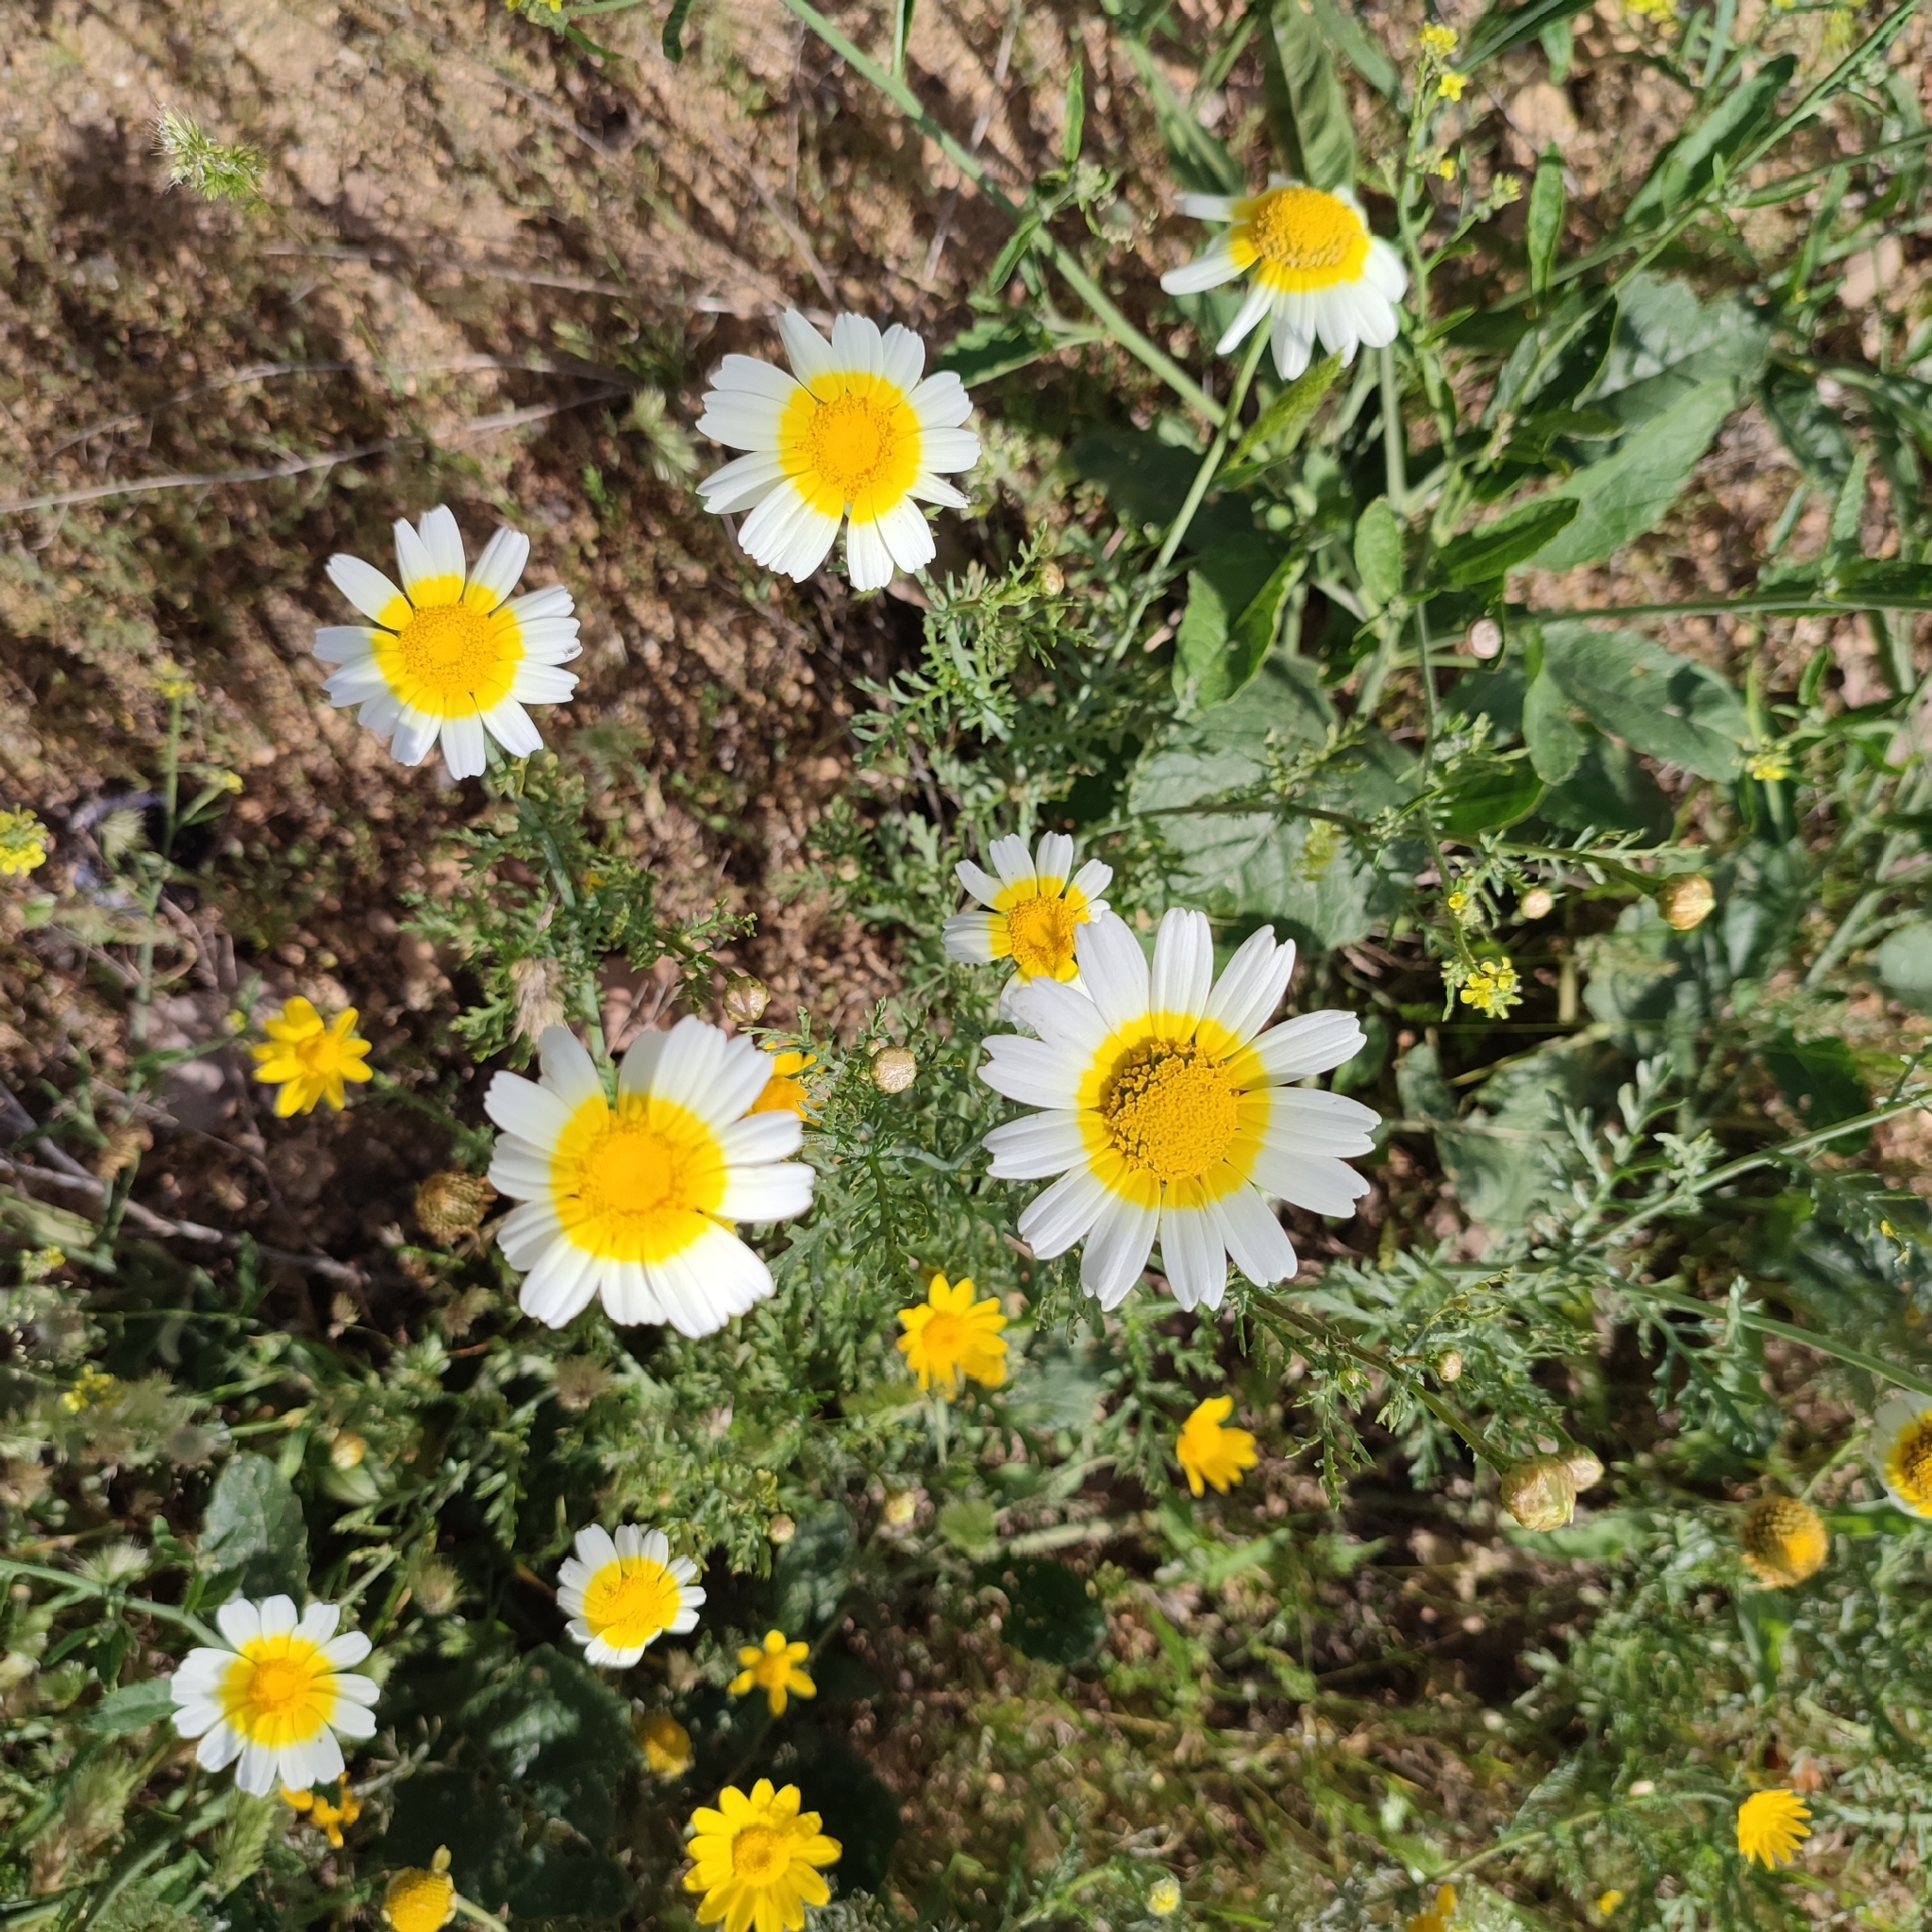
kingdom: Plantae
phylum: Tracheophyta
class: Magnoliopsida
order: Asterales
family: Asteraceae
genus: Glebionis
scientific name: Glebionis coronaria
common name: Crowndaisy
